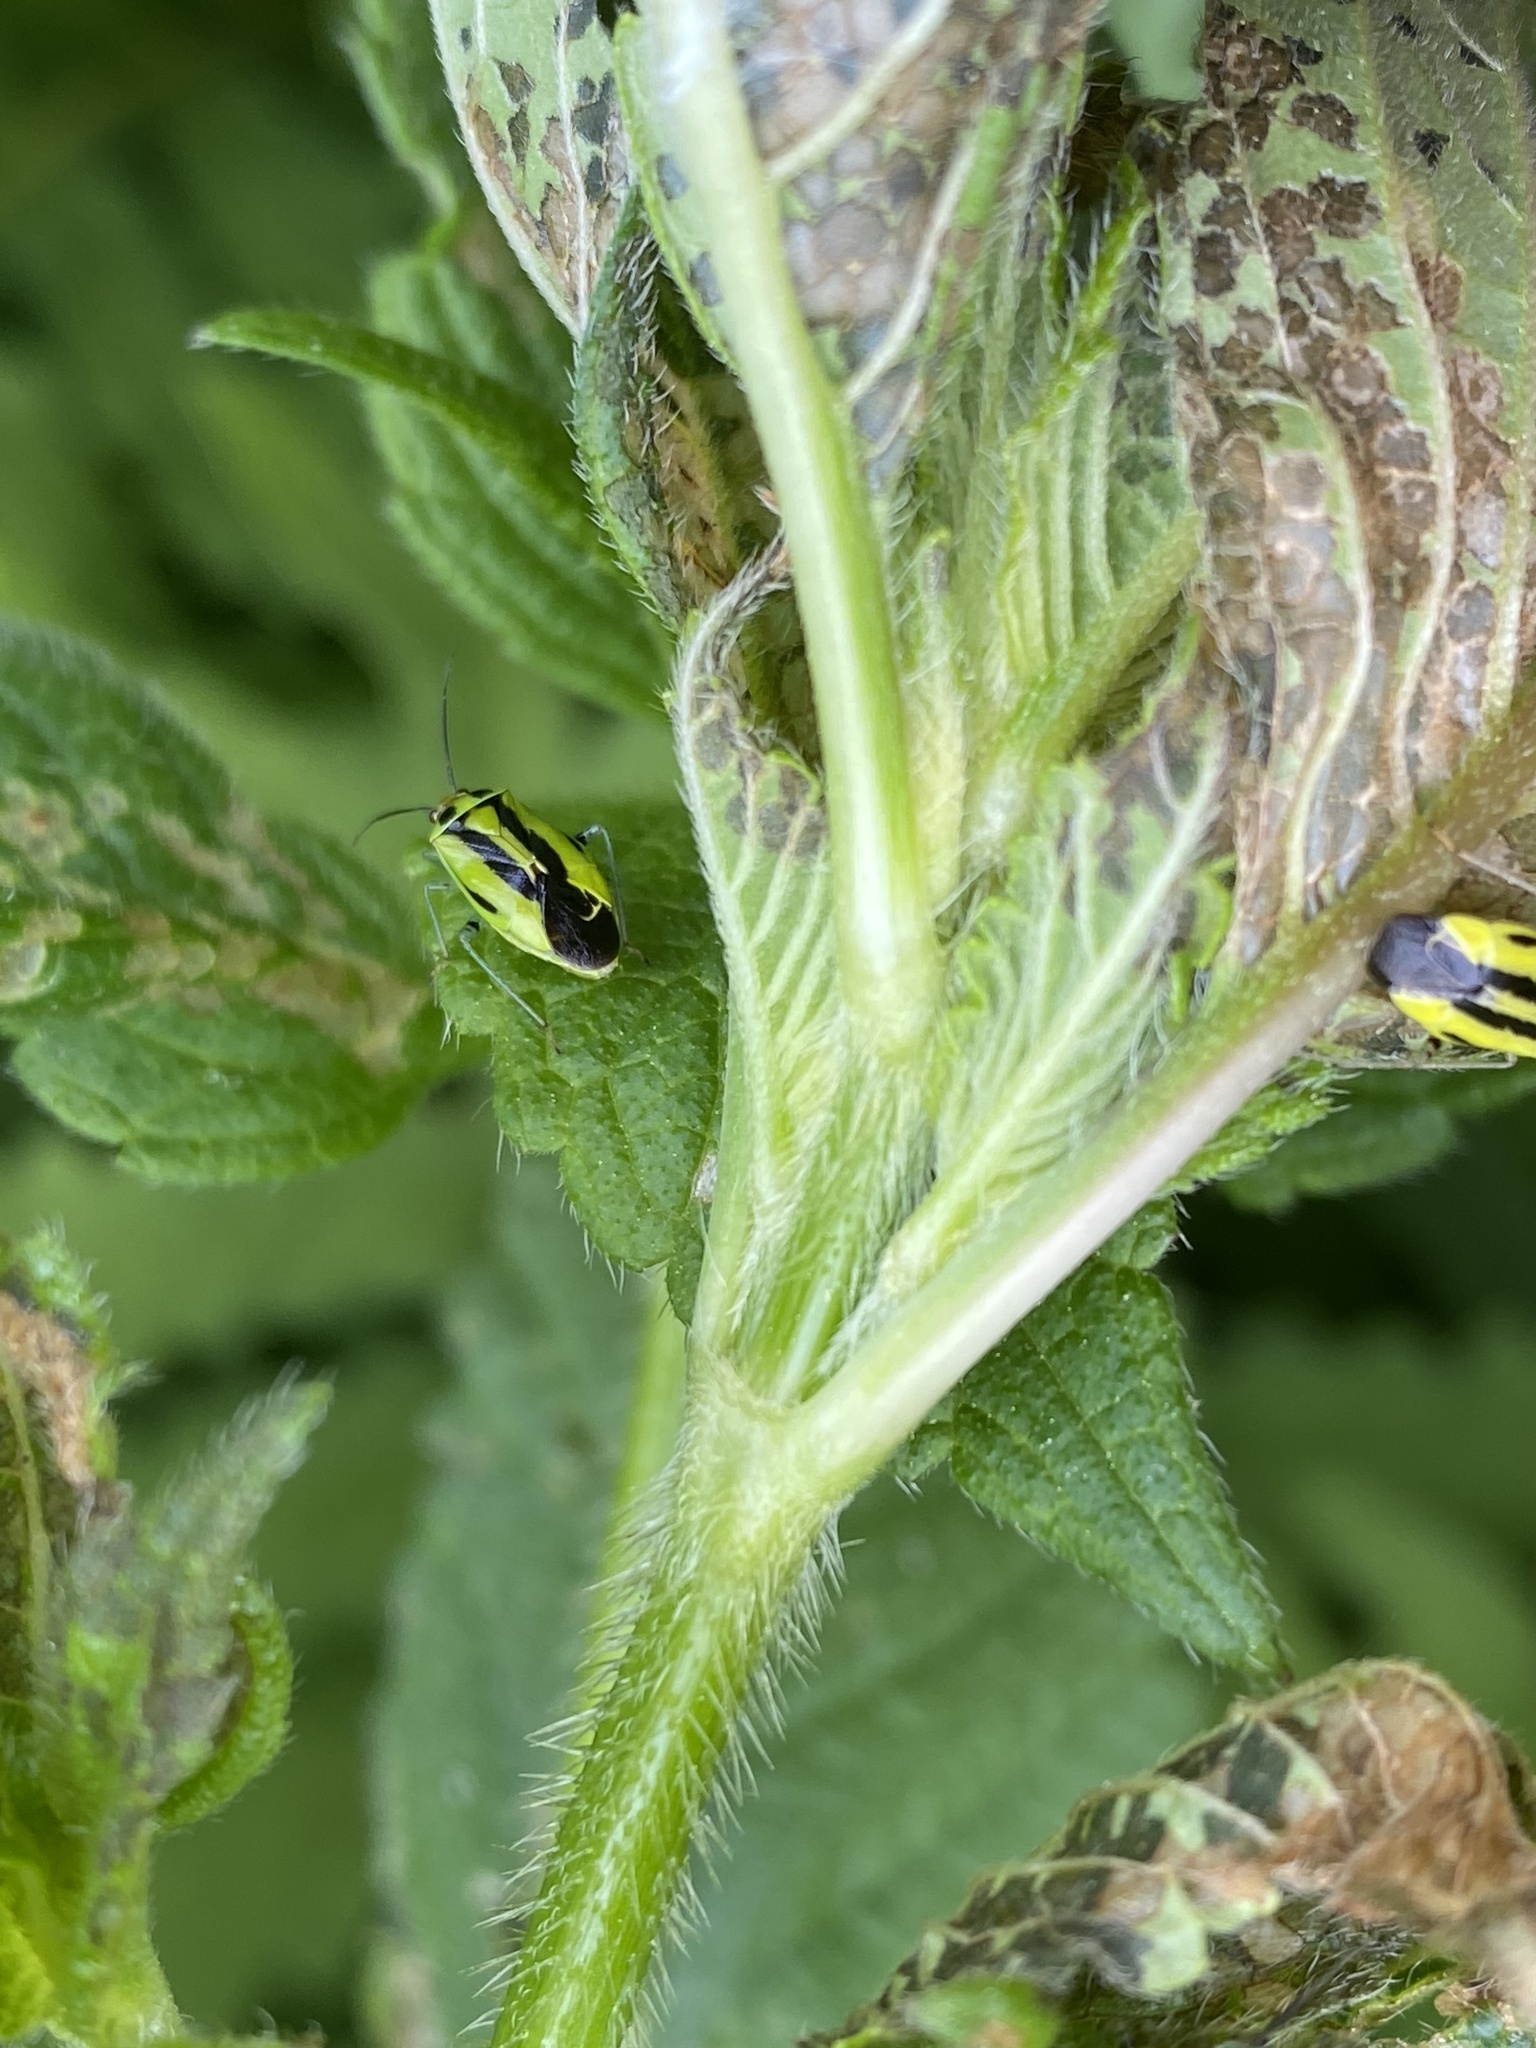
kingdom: Animalia
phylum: Arthropoda
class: Insecta
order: Hemiptera
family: Miridae
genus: Poecilocapsus
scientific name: Poecilocapsus lineatus
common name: Four-lined plant bug
